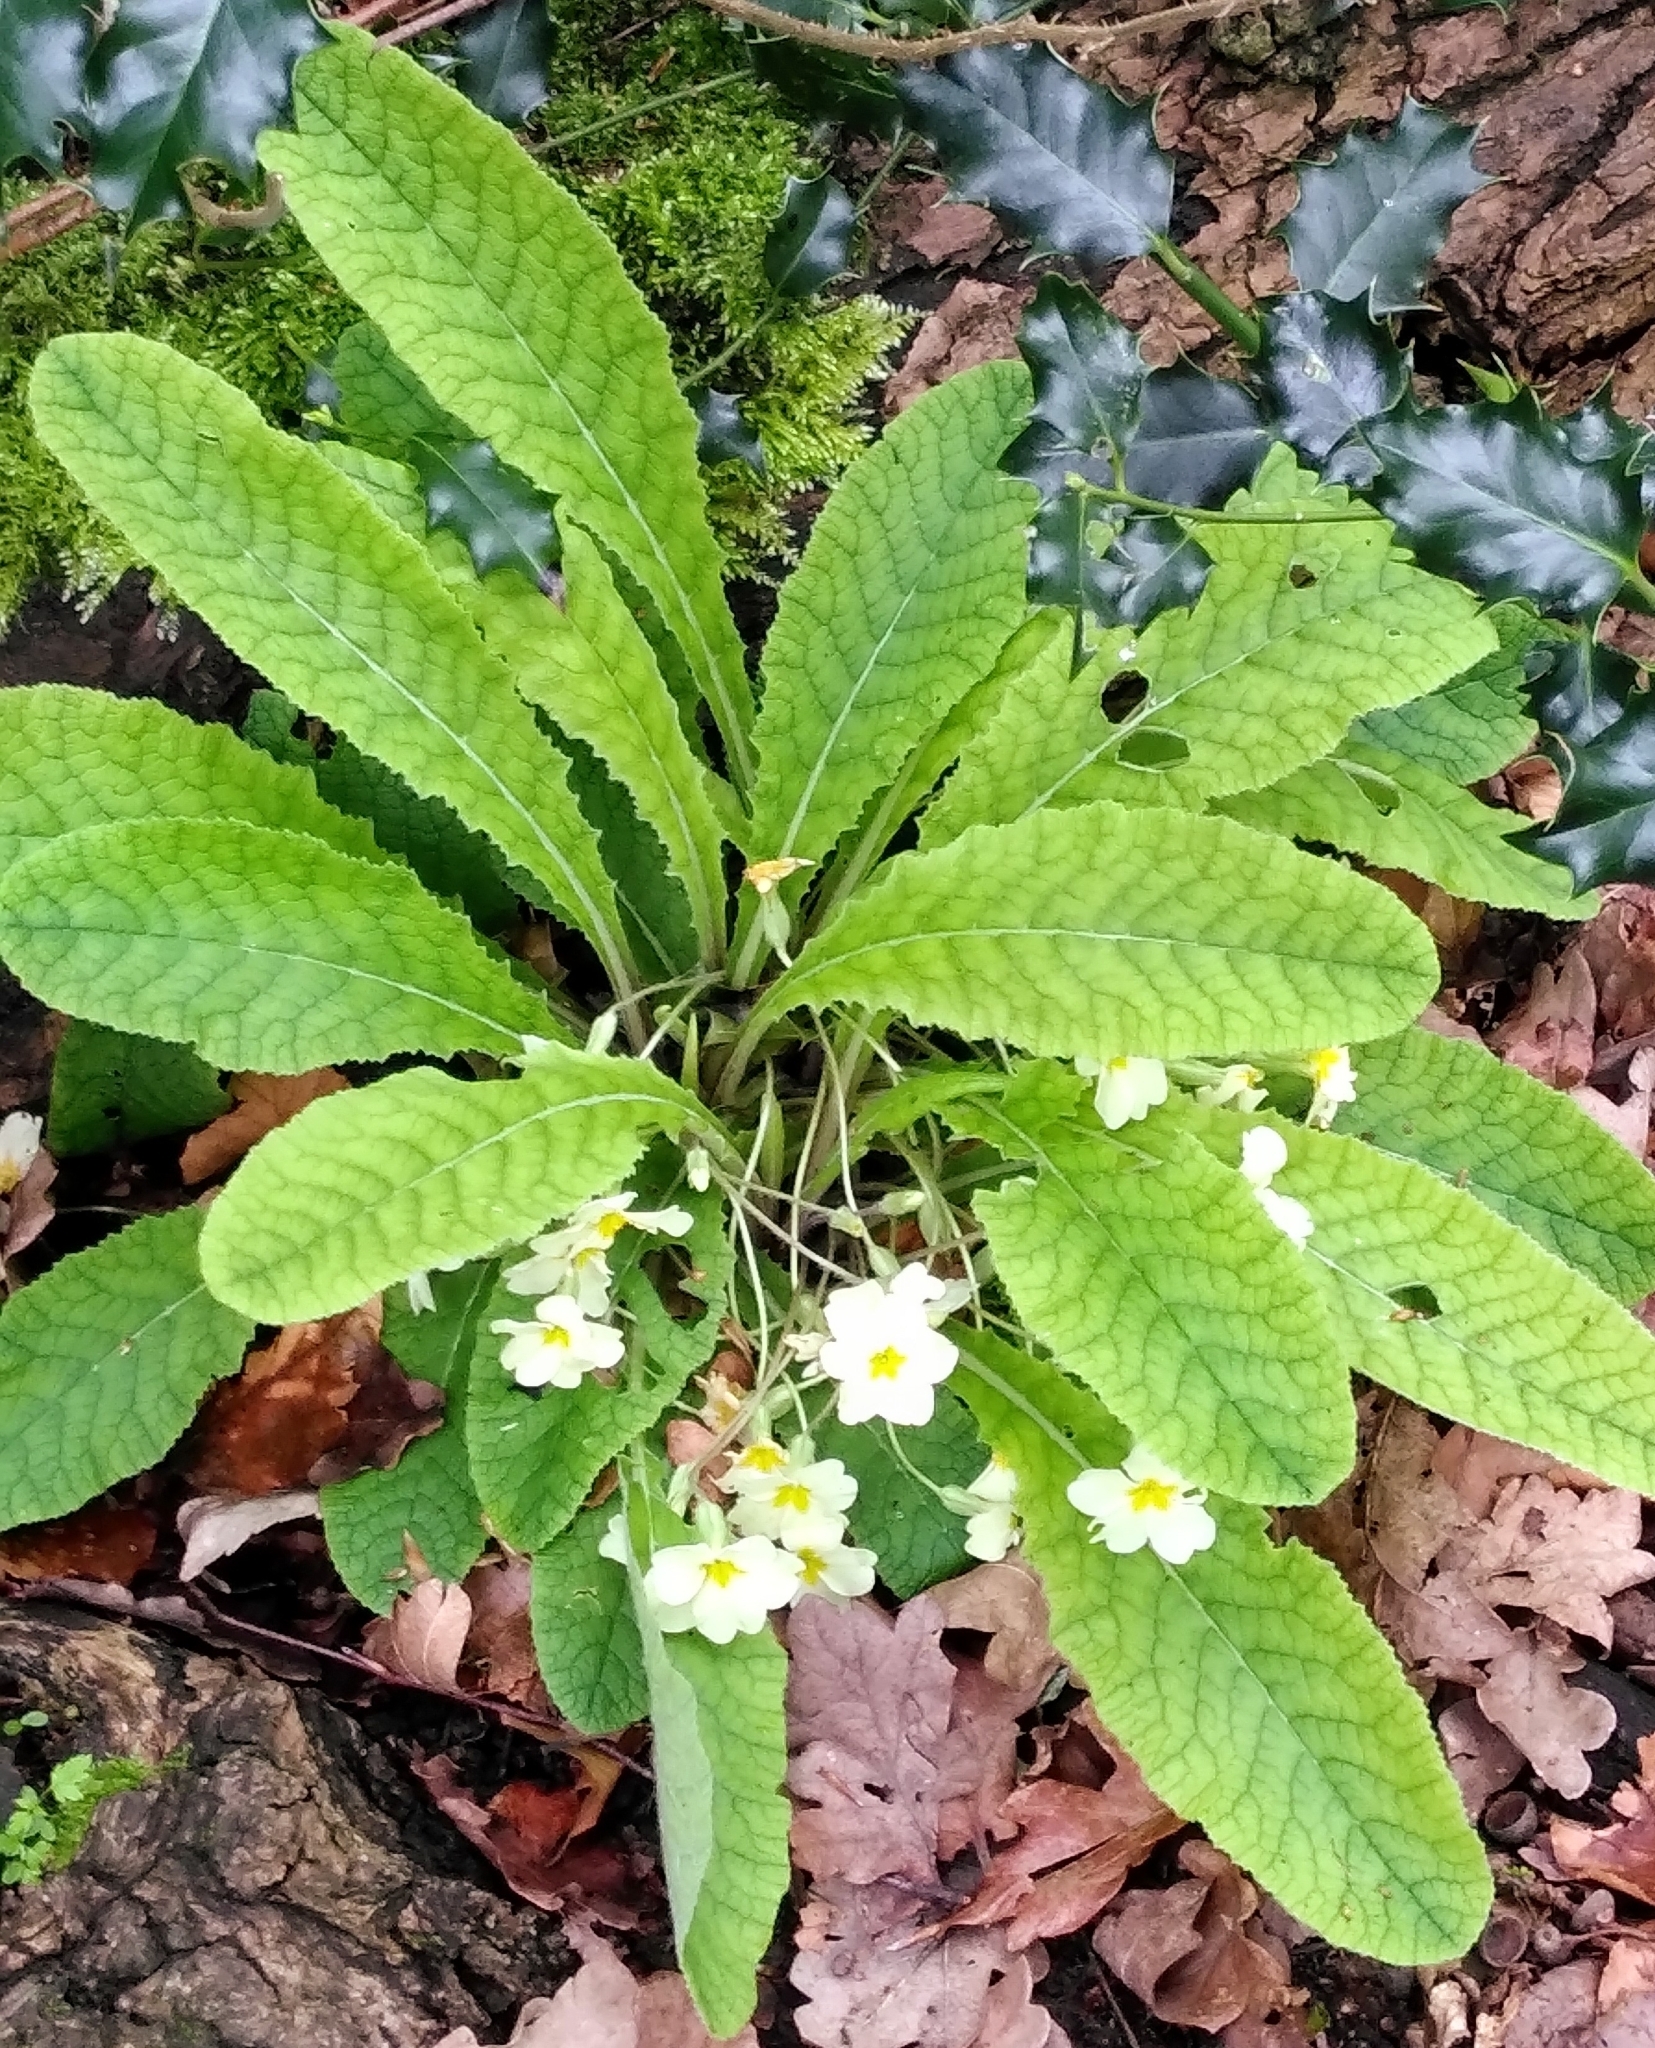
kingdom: Plantae
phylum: Tracheophyta
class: Magnoliopsida
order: Ericales
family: Primulaceae
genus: Primula
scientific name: Primula vulgaris
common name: Primrose
